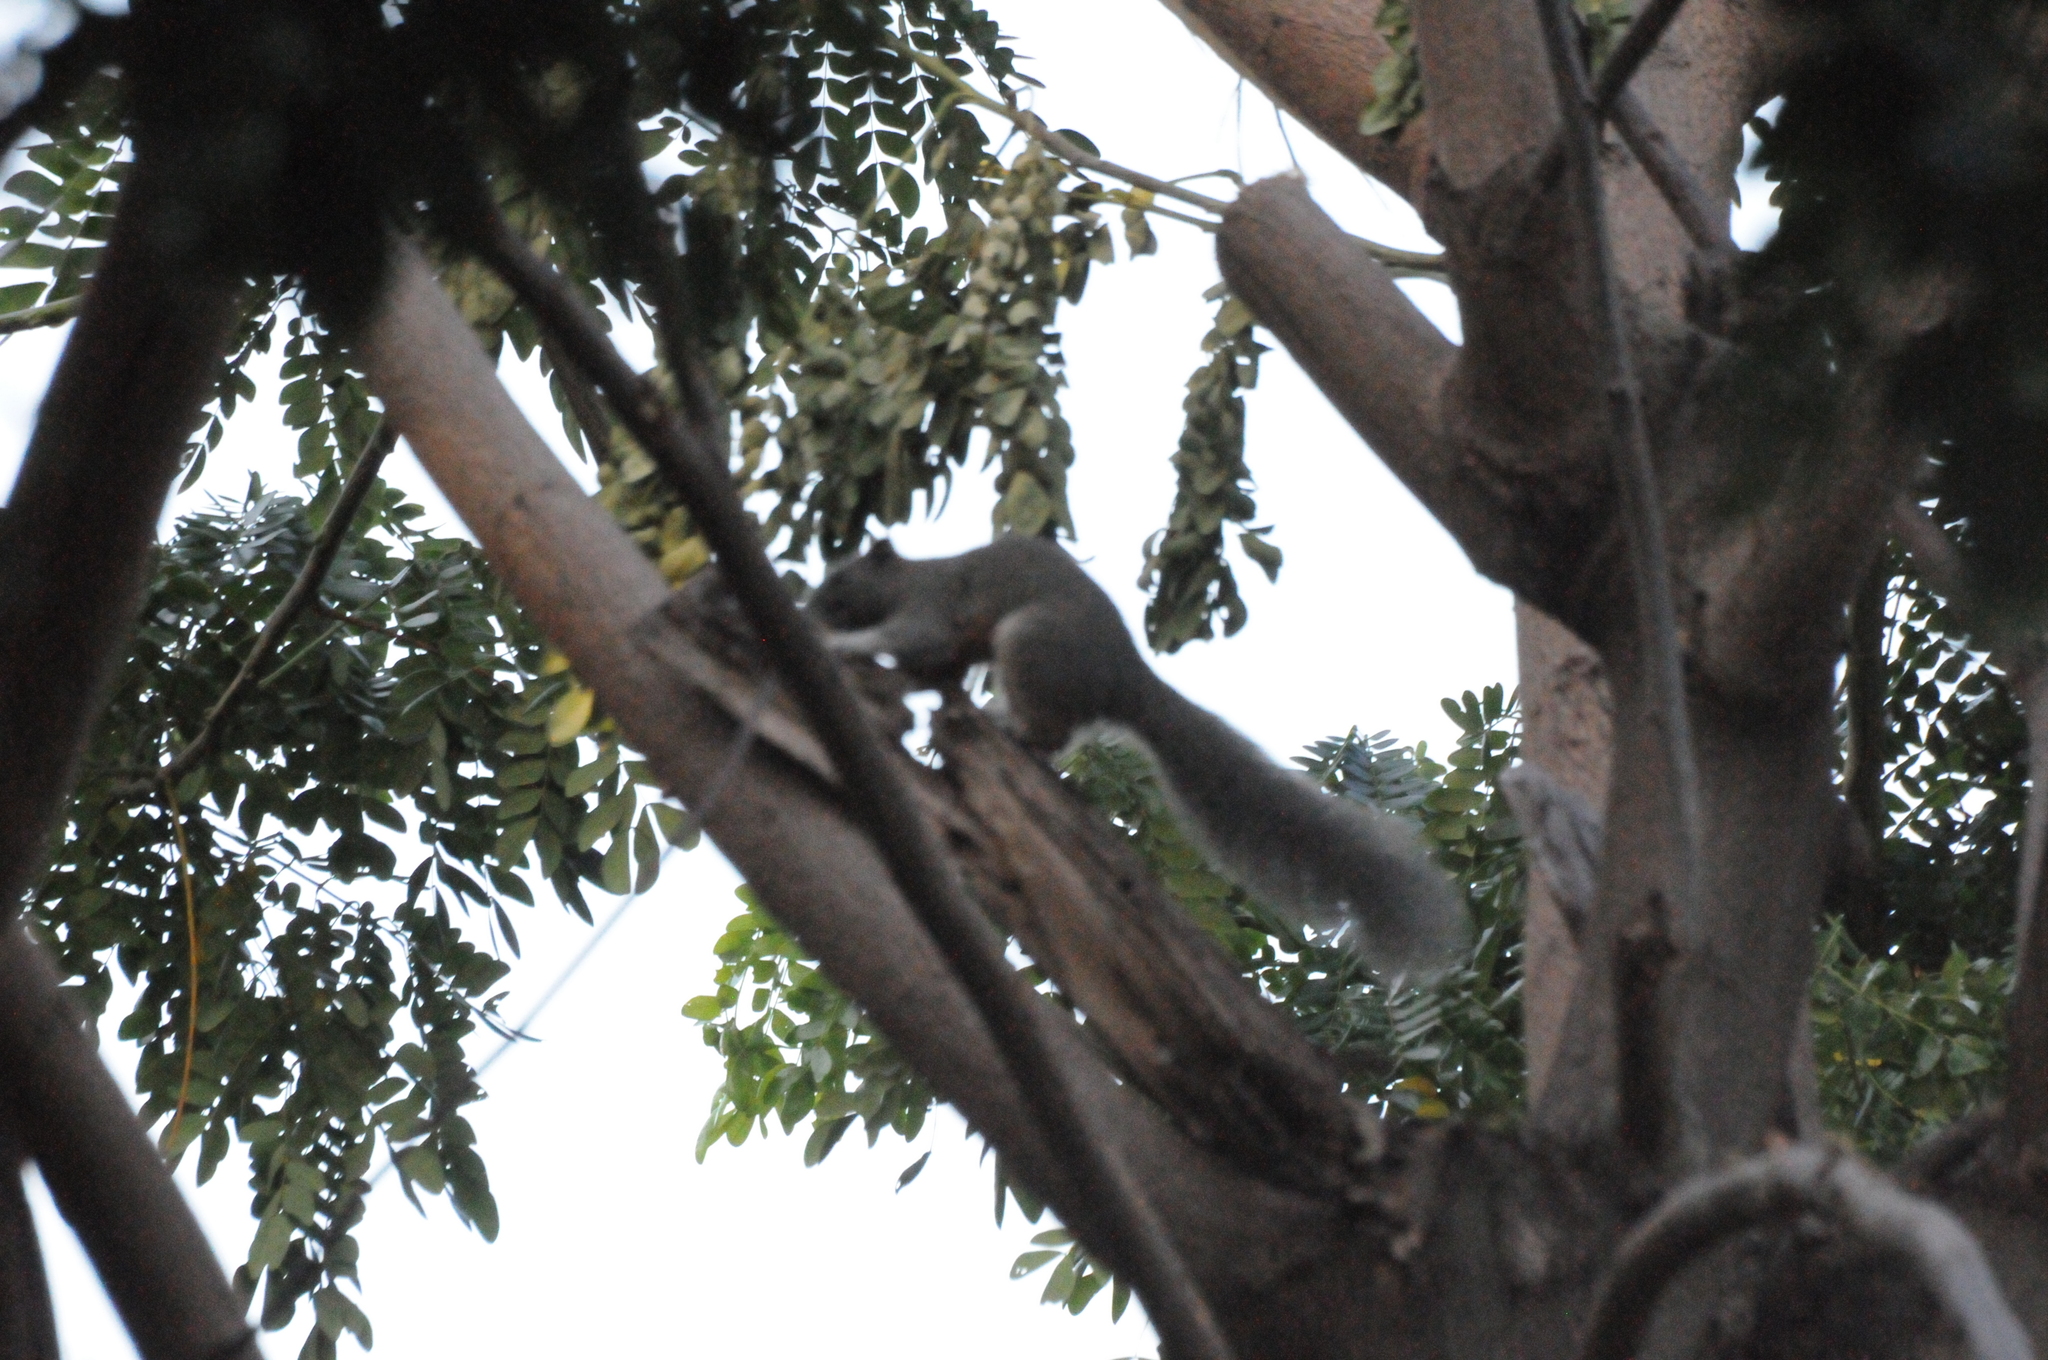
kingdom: Animalia
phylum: Chordata
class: Mammalia
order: Rodentia
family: Sciuridae
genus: Callosciurus
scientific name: Callosciurus erythraeus
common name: Pallas's squirrel
